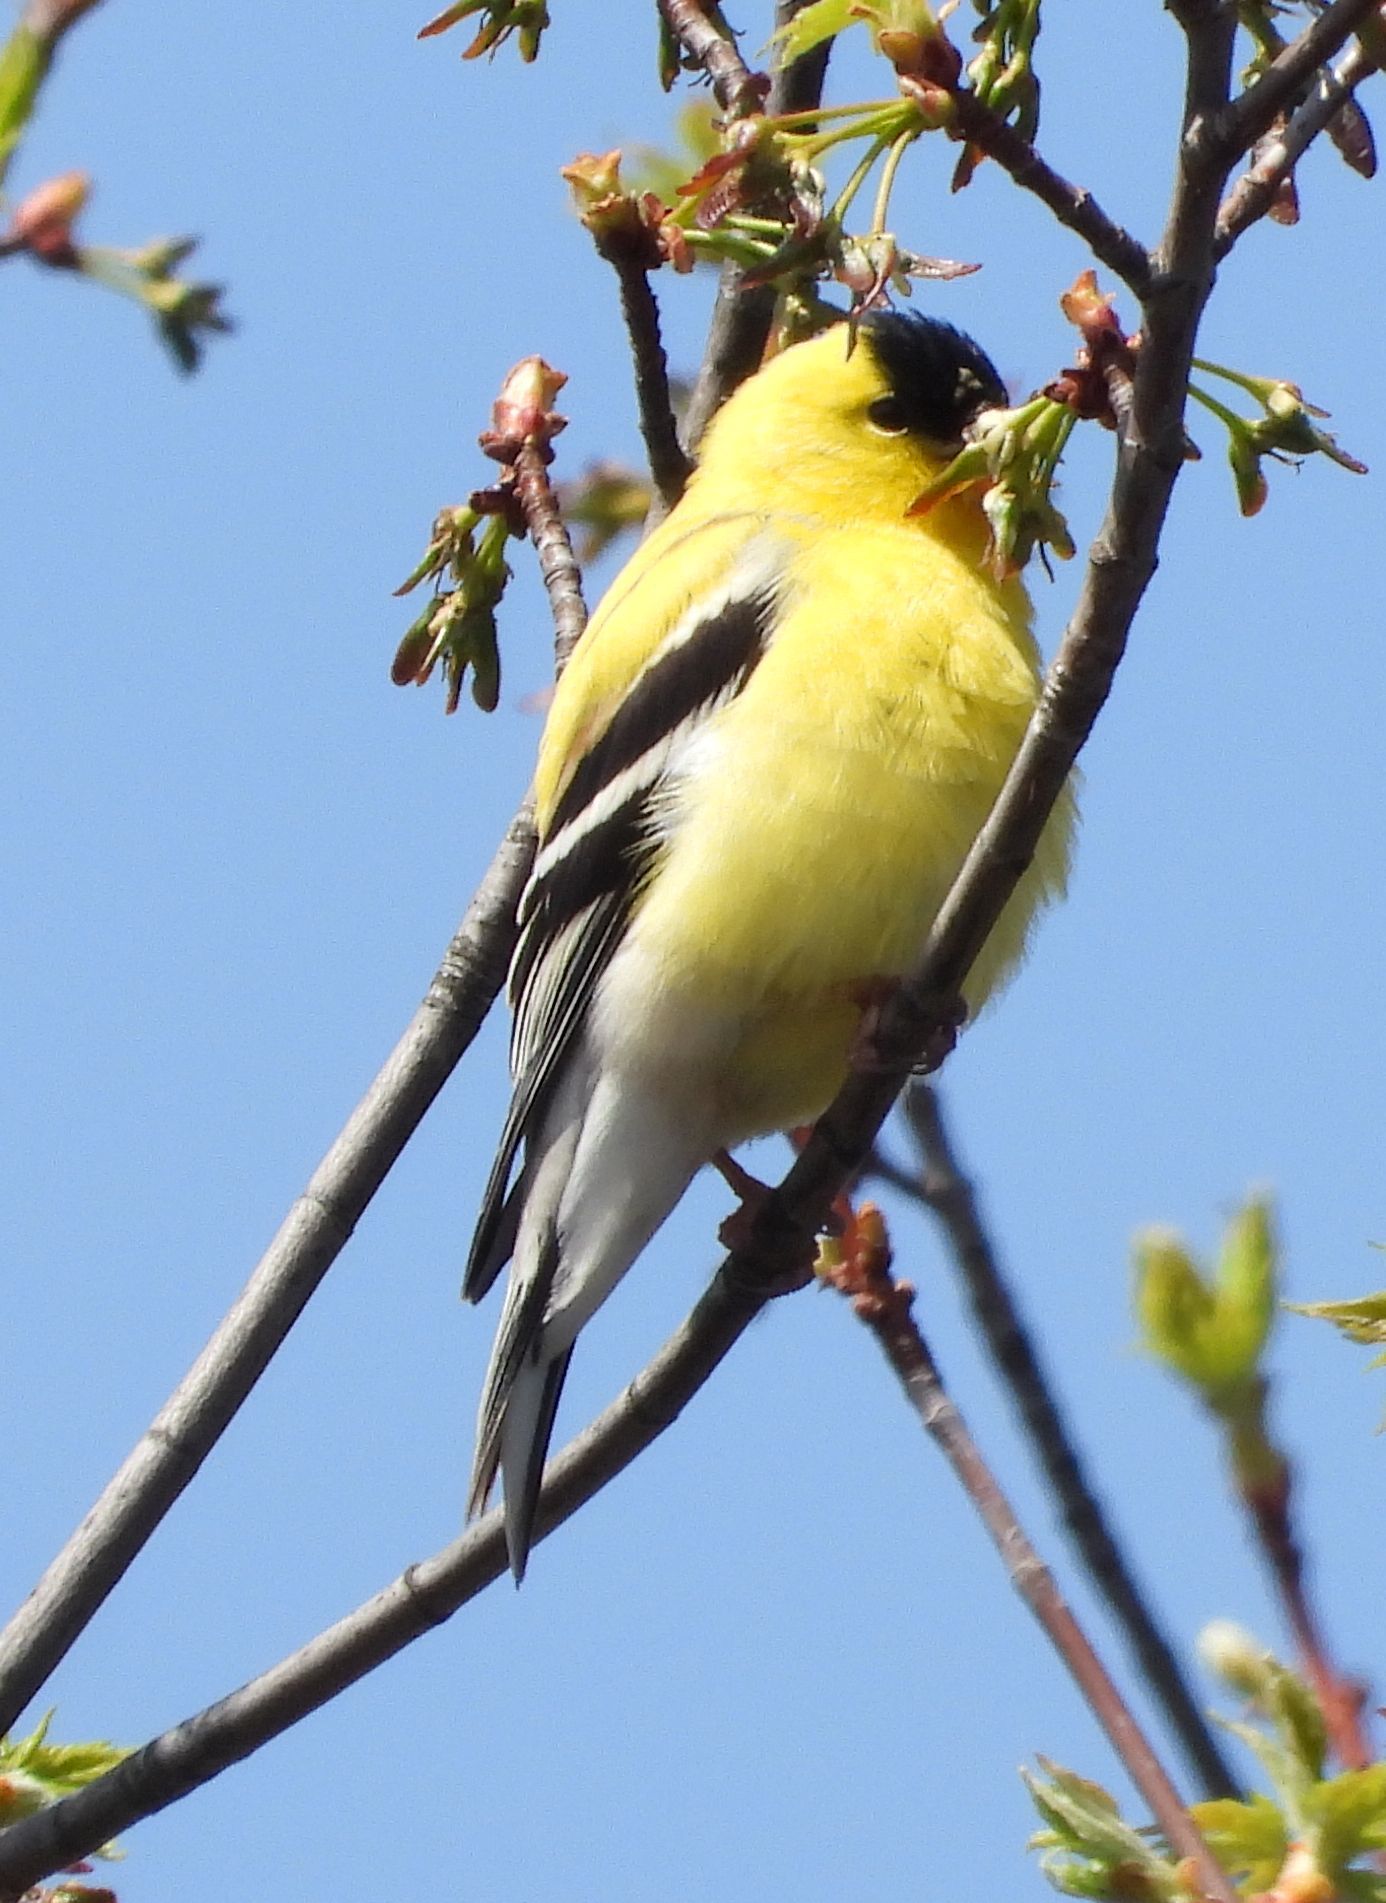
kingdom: Animalia
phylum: Chordata
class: Aves
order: Passeriformes
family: Fringillidae
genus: Spinus
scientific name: Spinus tristis
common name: American goldfinch
